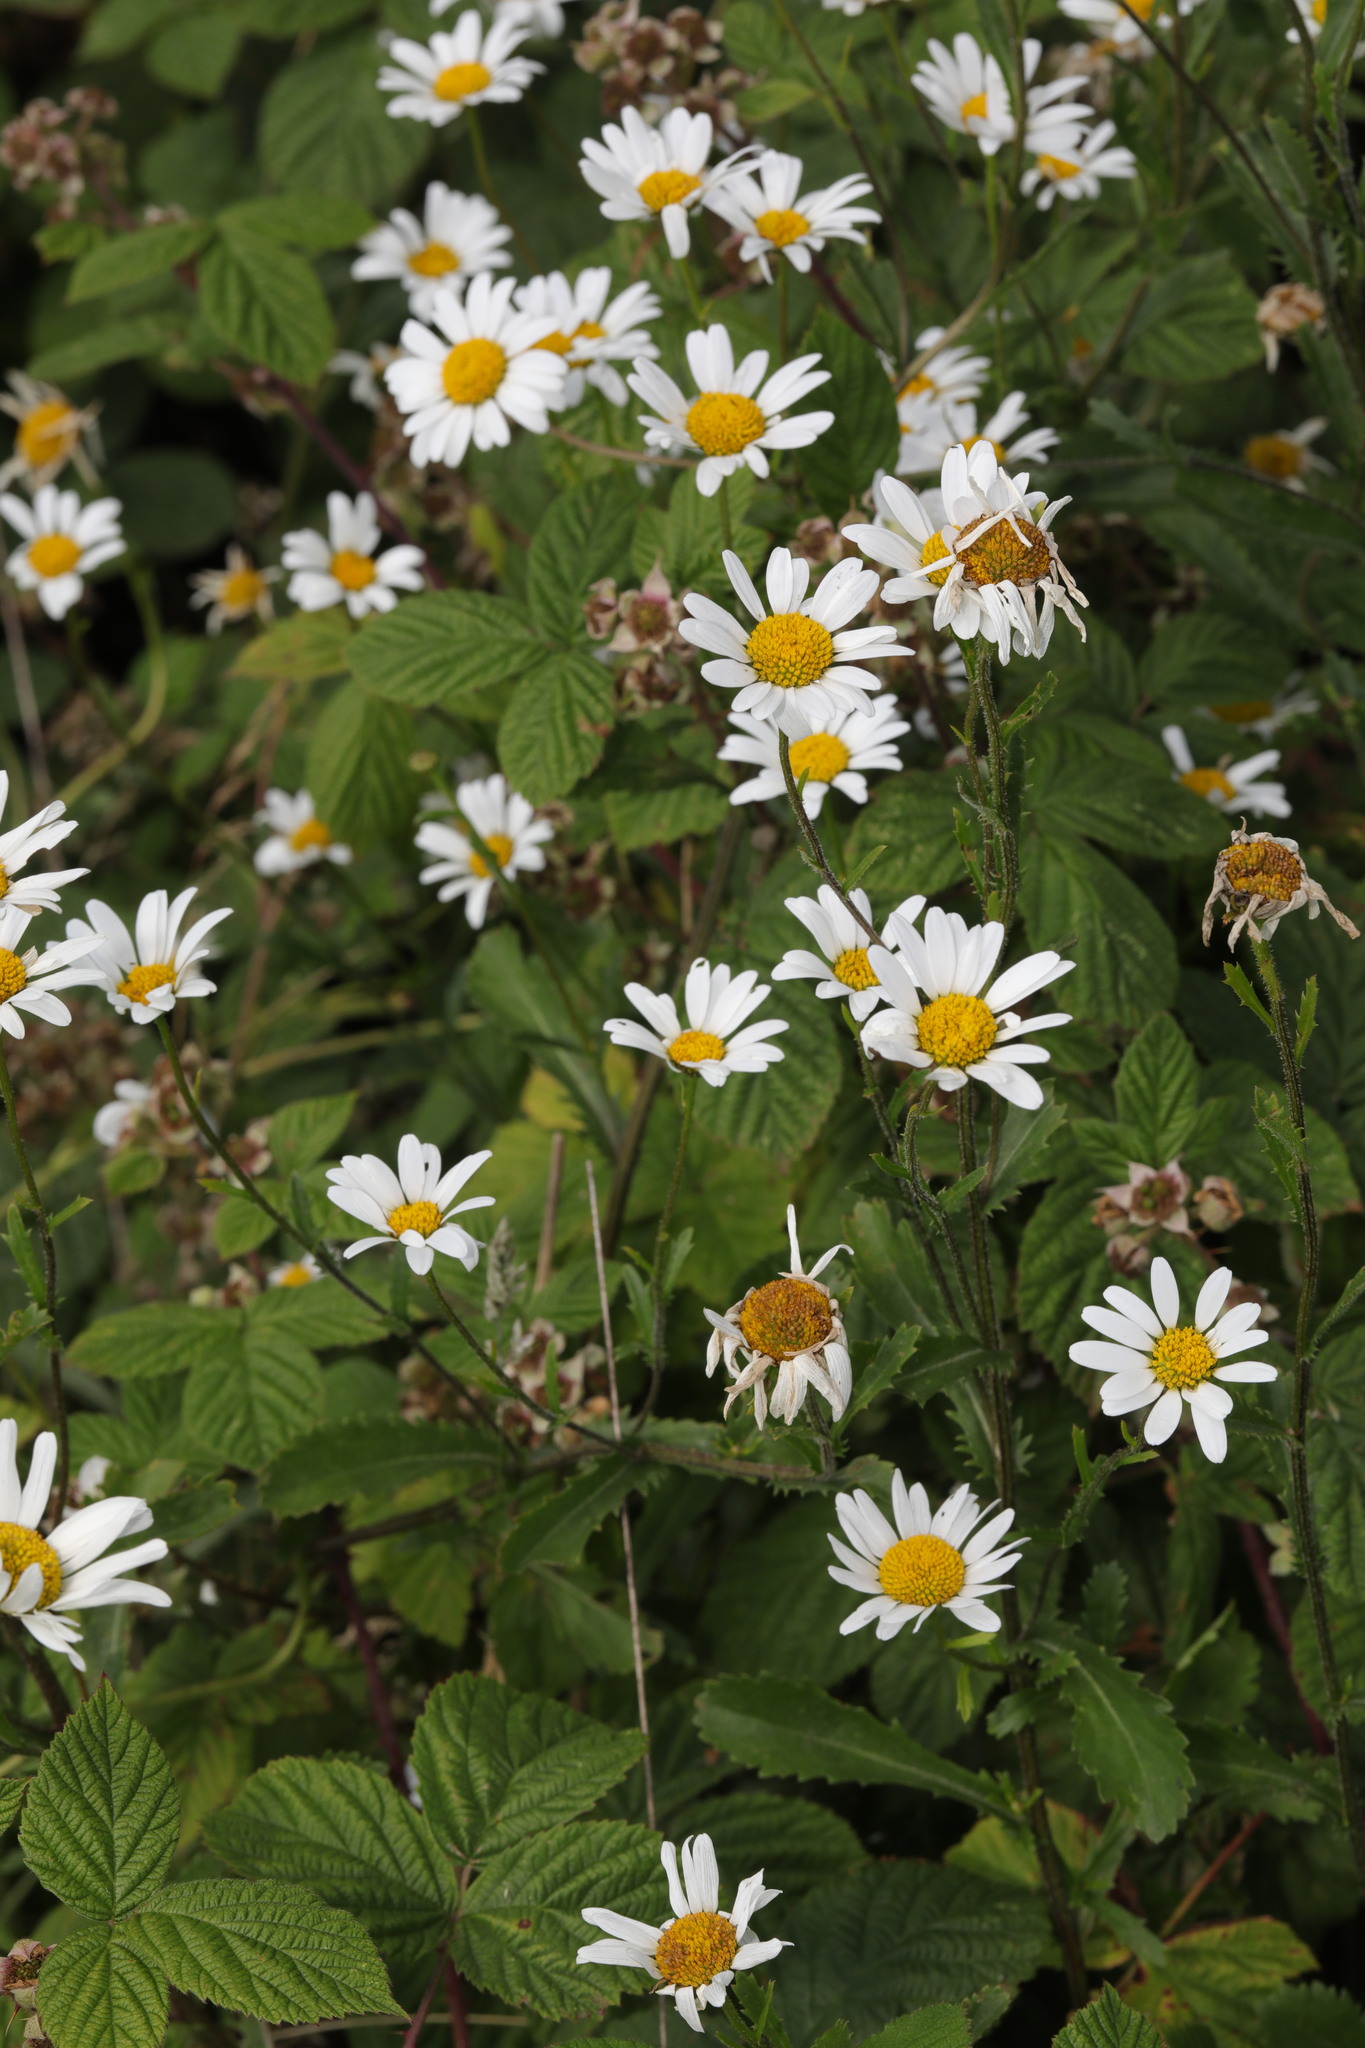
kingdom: Plantae
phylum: Tracheophyta
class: Magnoliopsida
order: Asterales
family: Asteraceae
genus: Leucanthemum
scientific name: Leucanthemum vulgare
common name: Oxeye daisy
